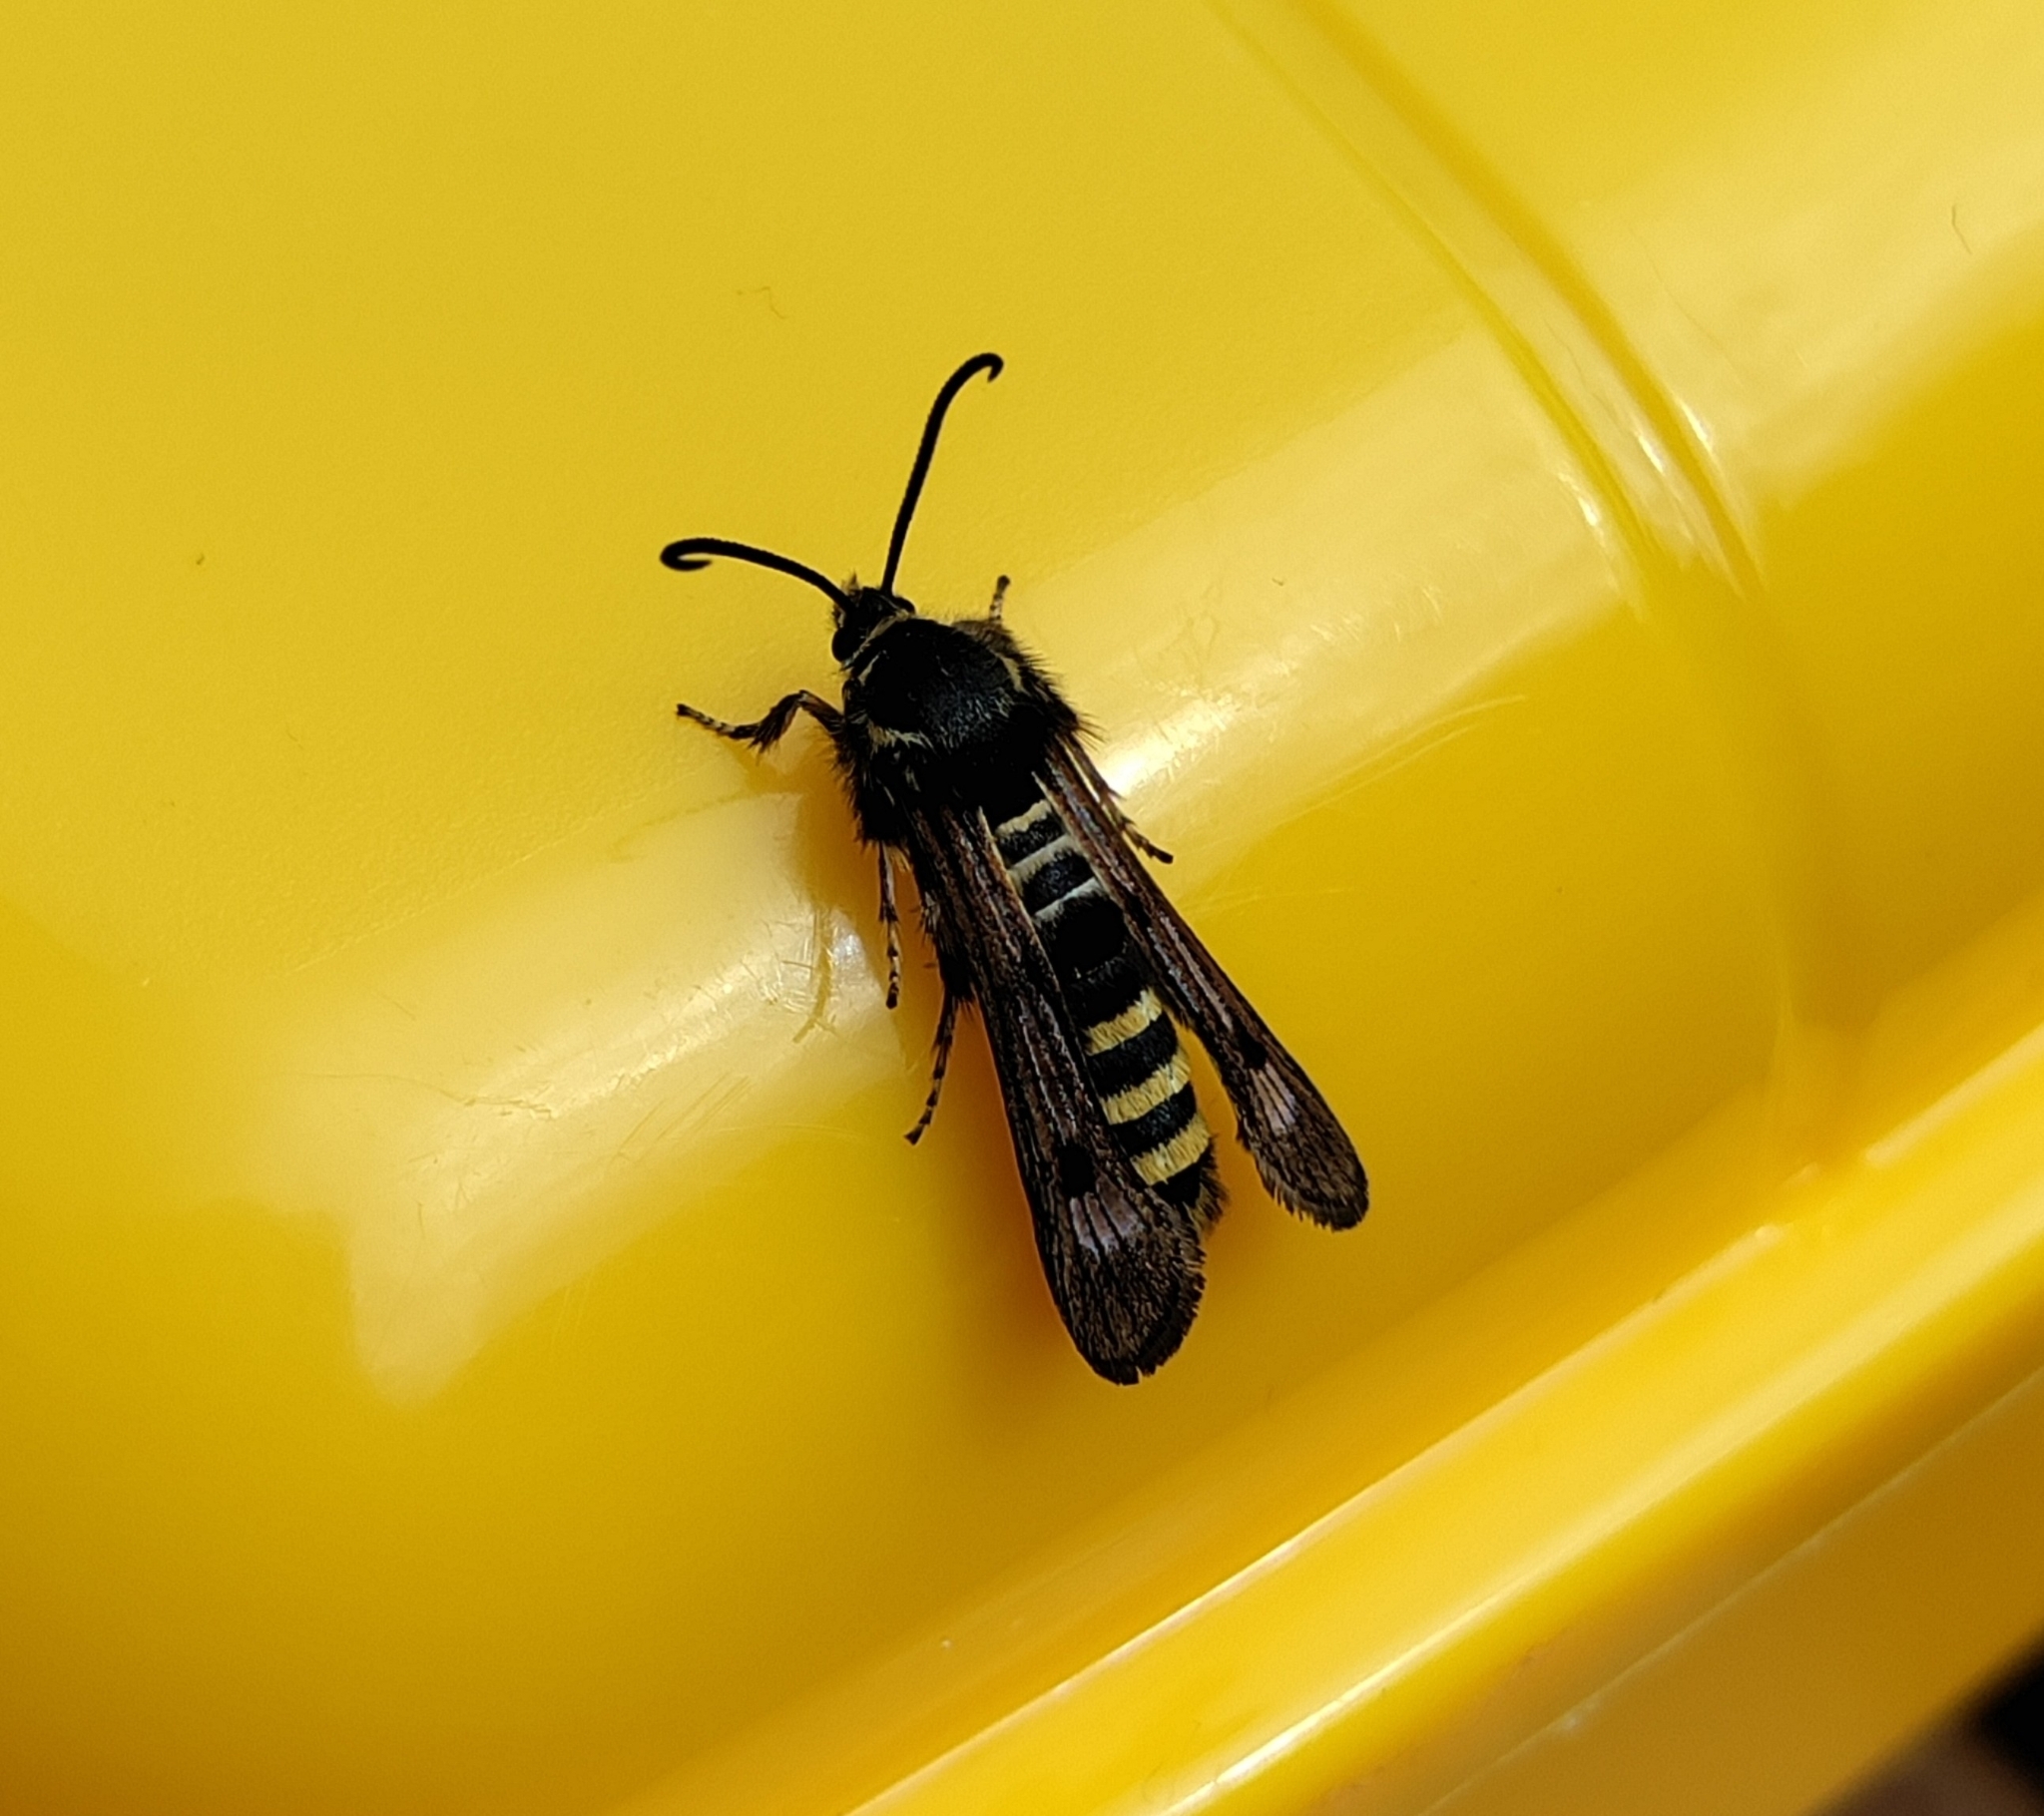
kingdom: Animalia
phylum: Arthropoda
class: Insecta
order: Lepidoptera
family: Sesiidae
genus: Pennisetia
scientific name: Pennisetia hylaeiformis
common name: Raspberry clearwing
